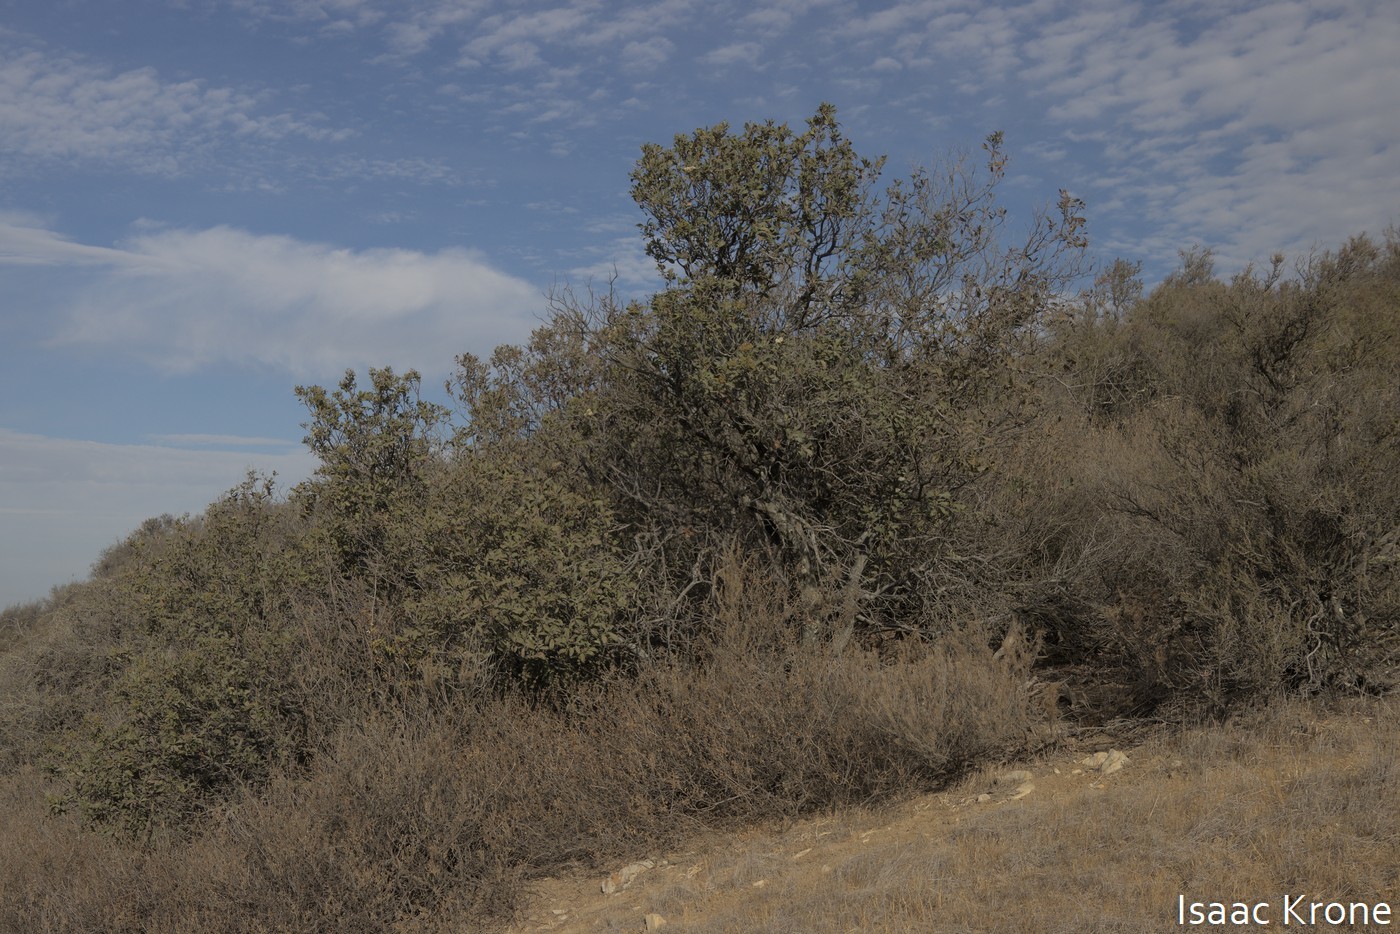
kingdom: Plantae
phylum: Tracheophyta
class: Magnoliopsida
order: Rosales
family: Rosaceae
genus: Heteromeles
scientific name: Heteromeles arbutifolia
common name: California-holly
